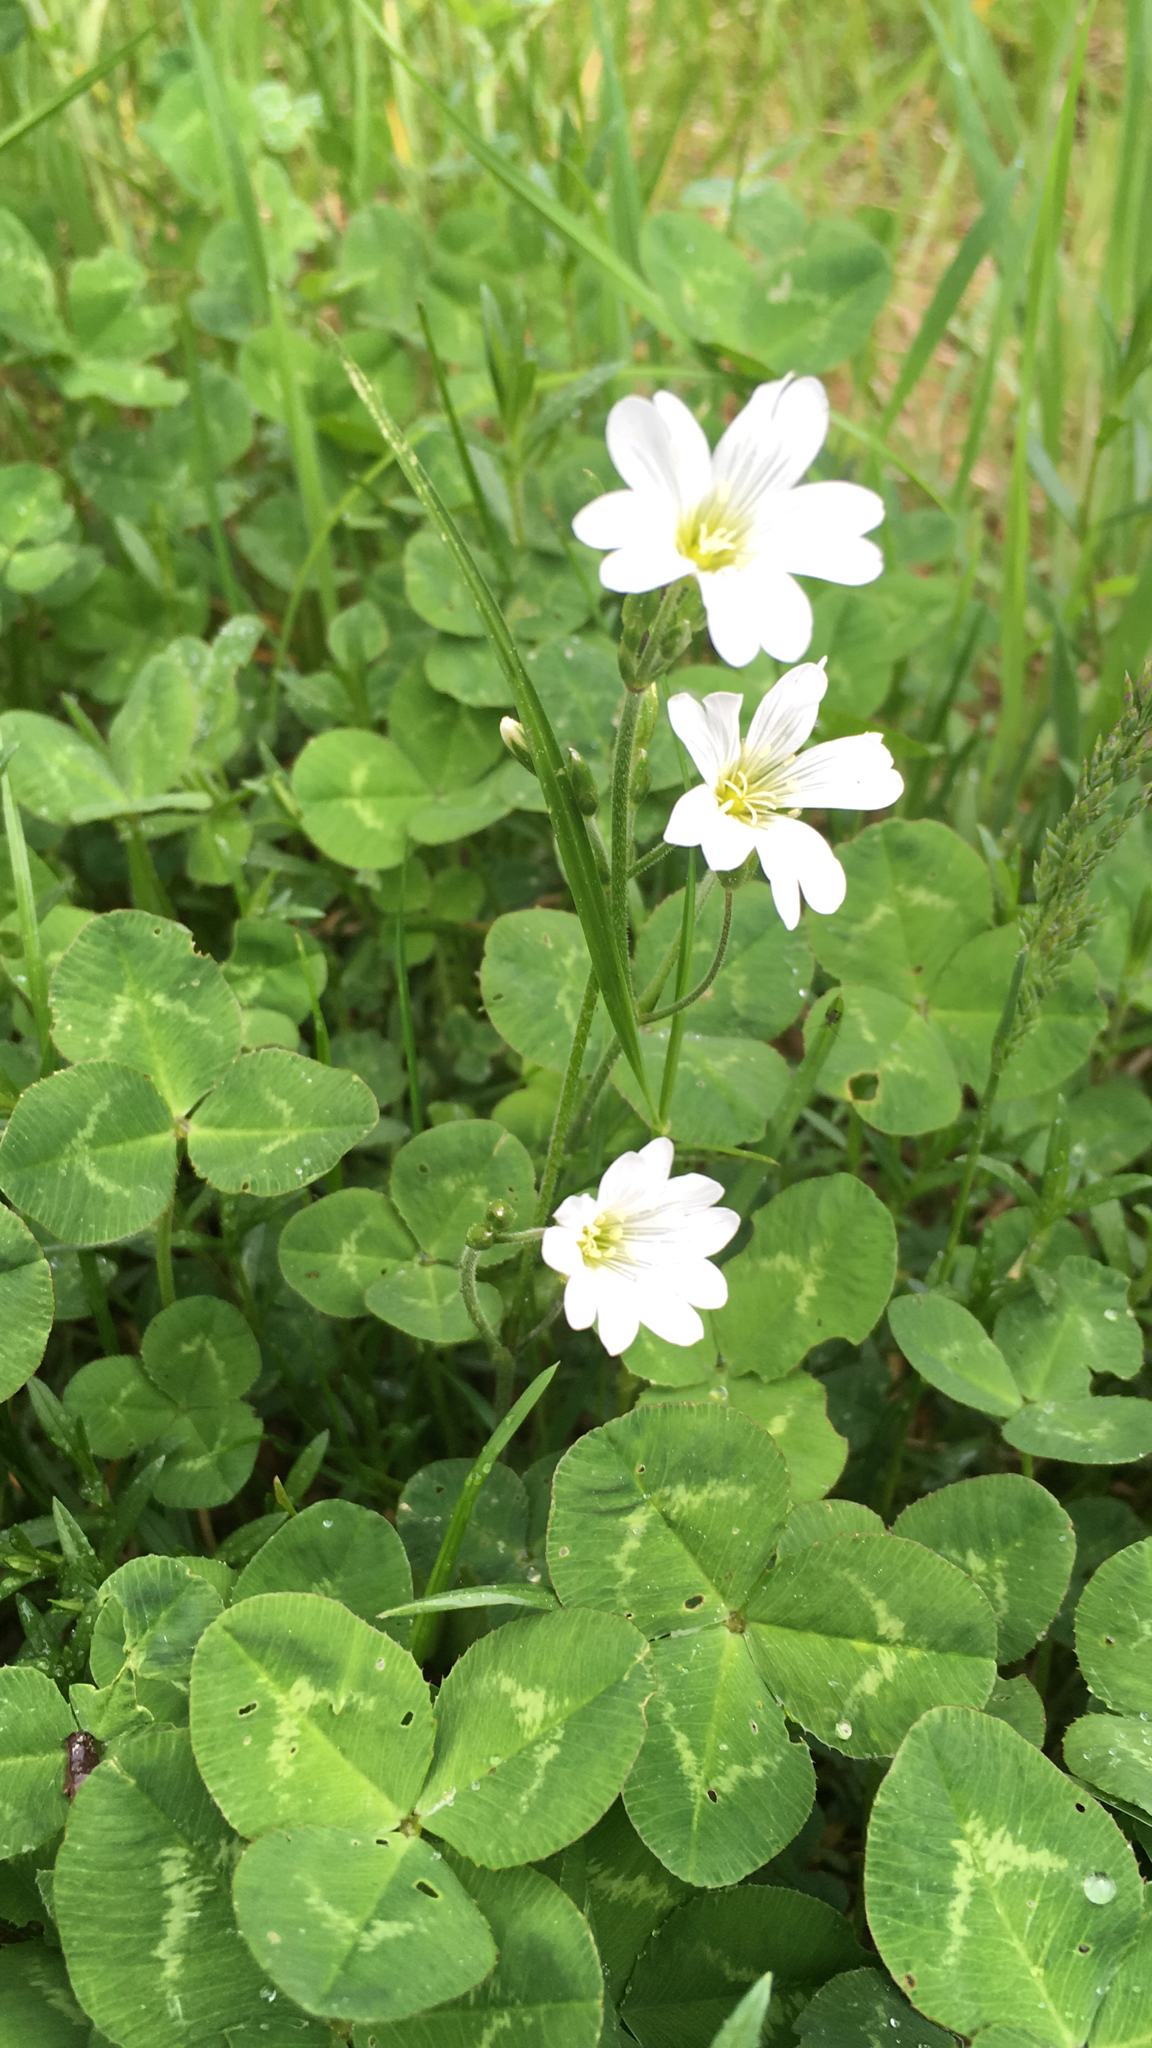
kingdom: Plantae
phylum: Tracheophyta
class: Magnoliopsida
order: Caryophyllales
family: Caryophyllaceae
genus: Cerastium
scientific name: Cerastium arvense
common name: Field mouse-ear
